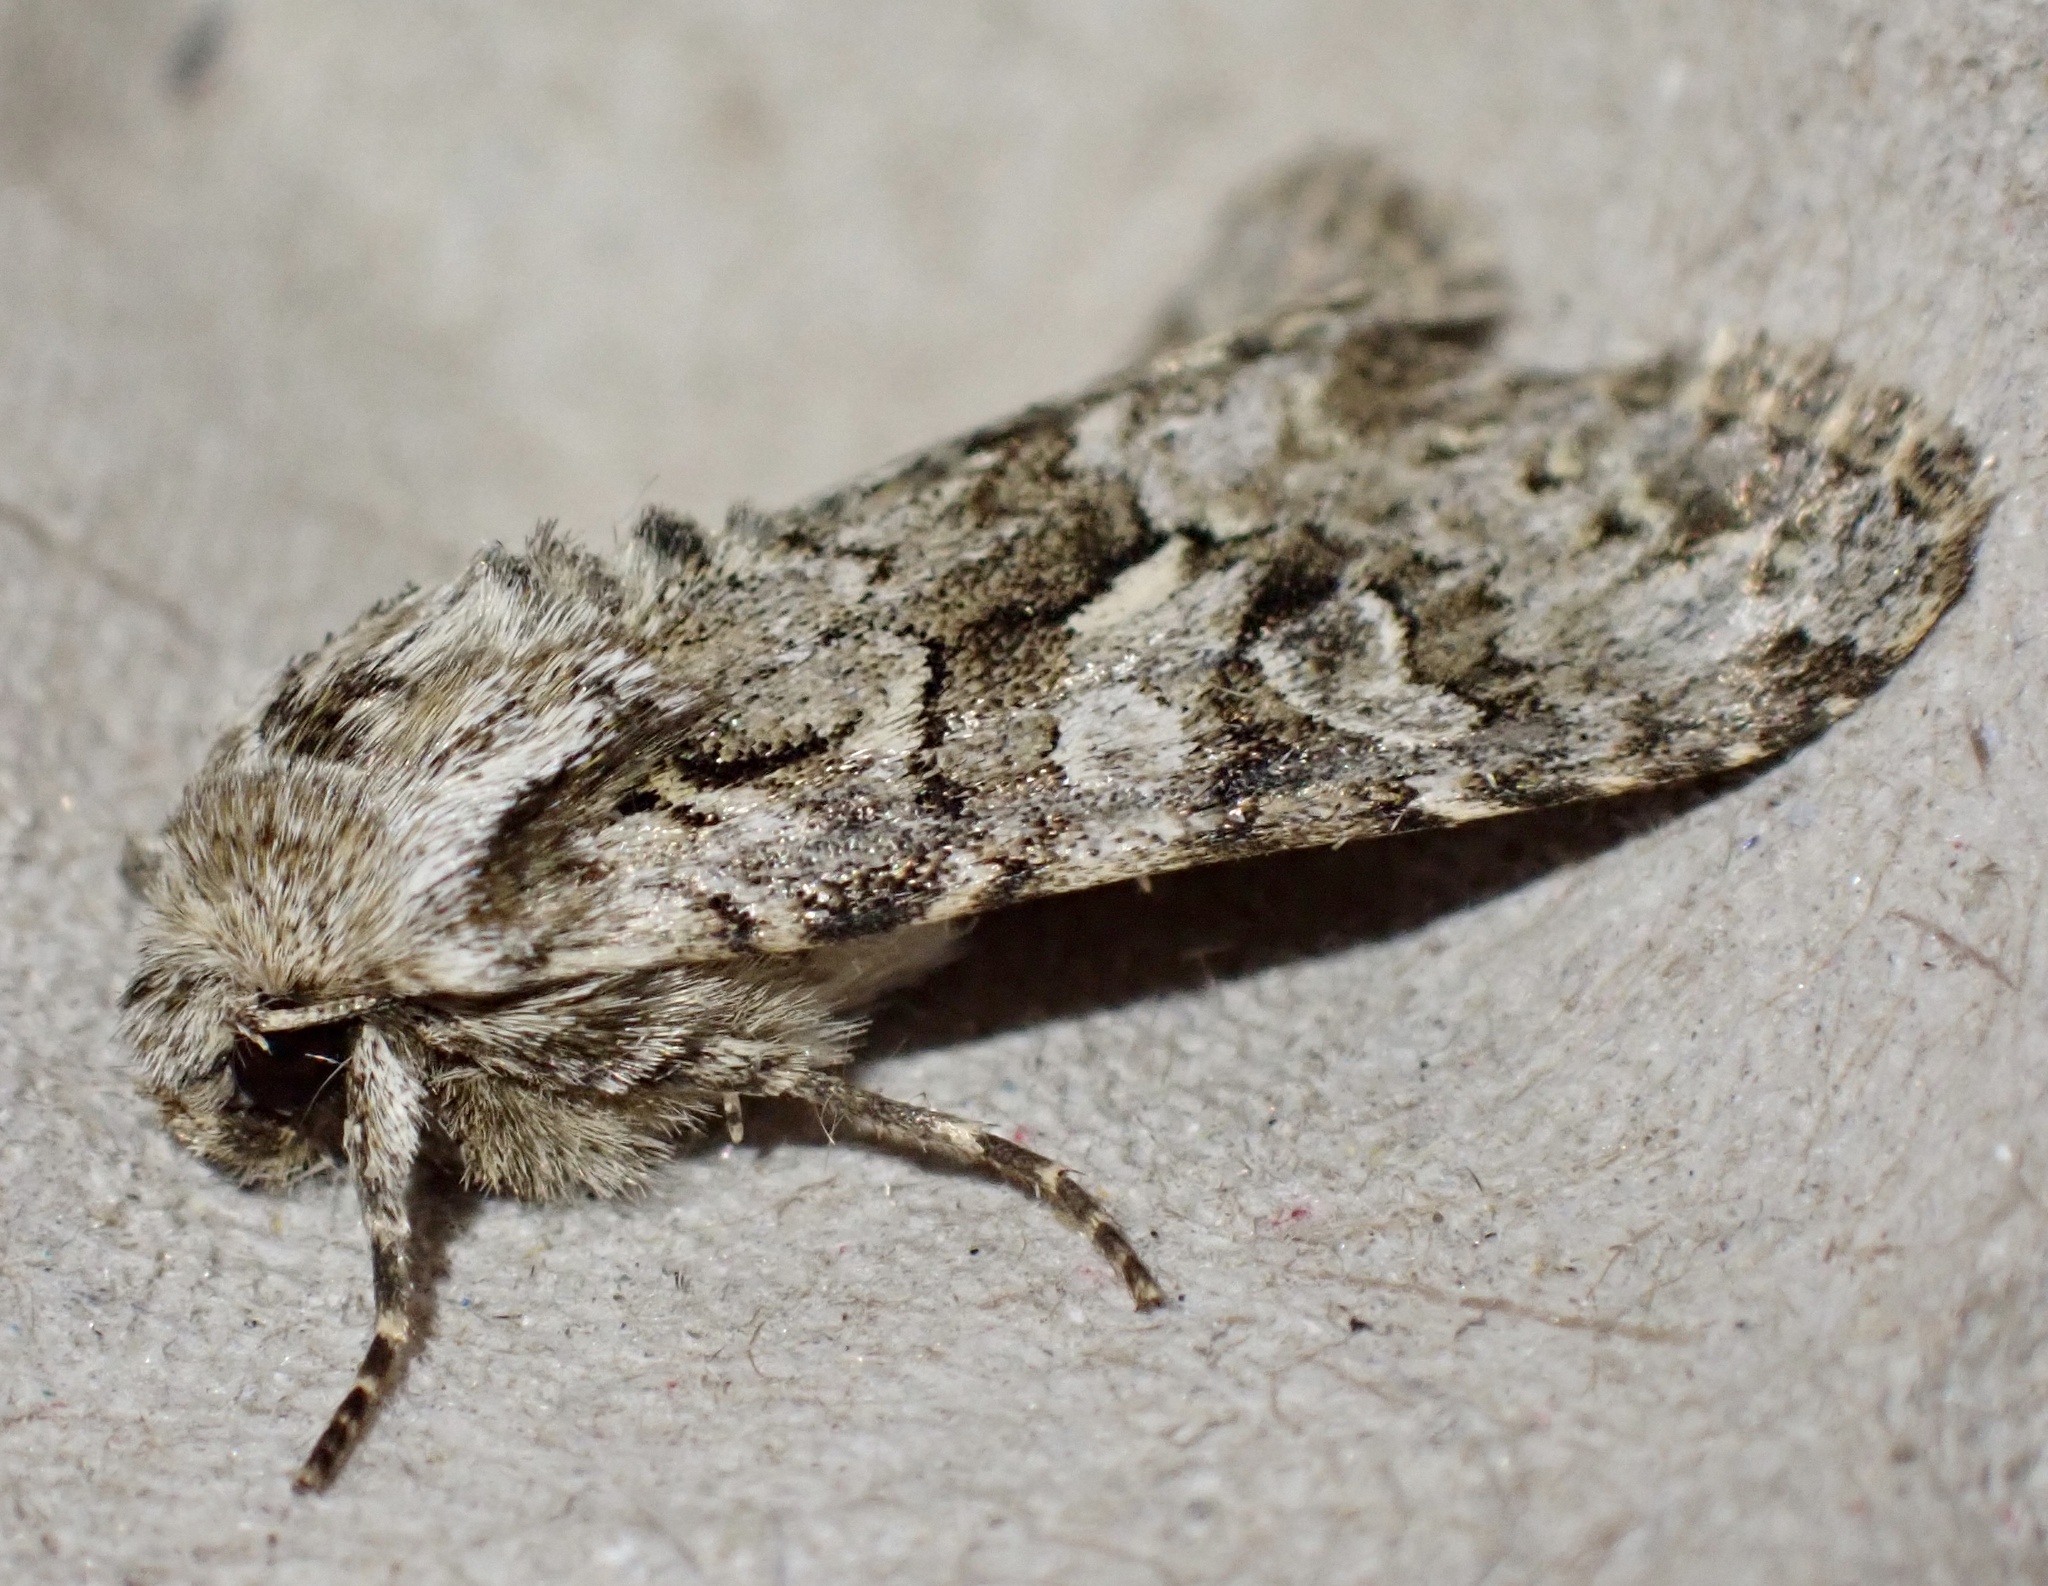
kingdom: Animalia
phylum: Arthropoda
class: Insecta
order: Lepidoptera
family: Noctuidae
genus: Hada
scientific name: Hada plebeja
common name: Shears
